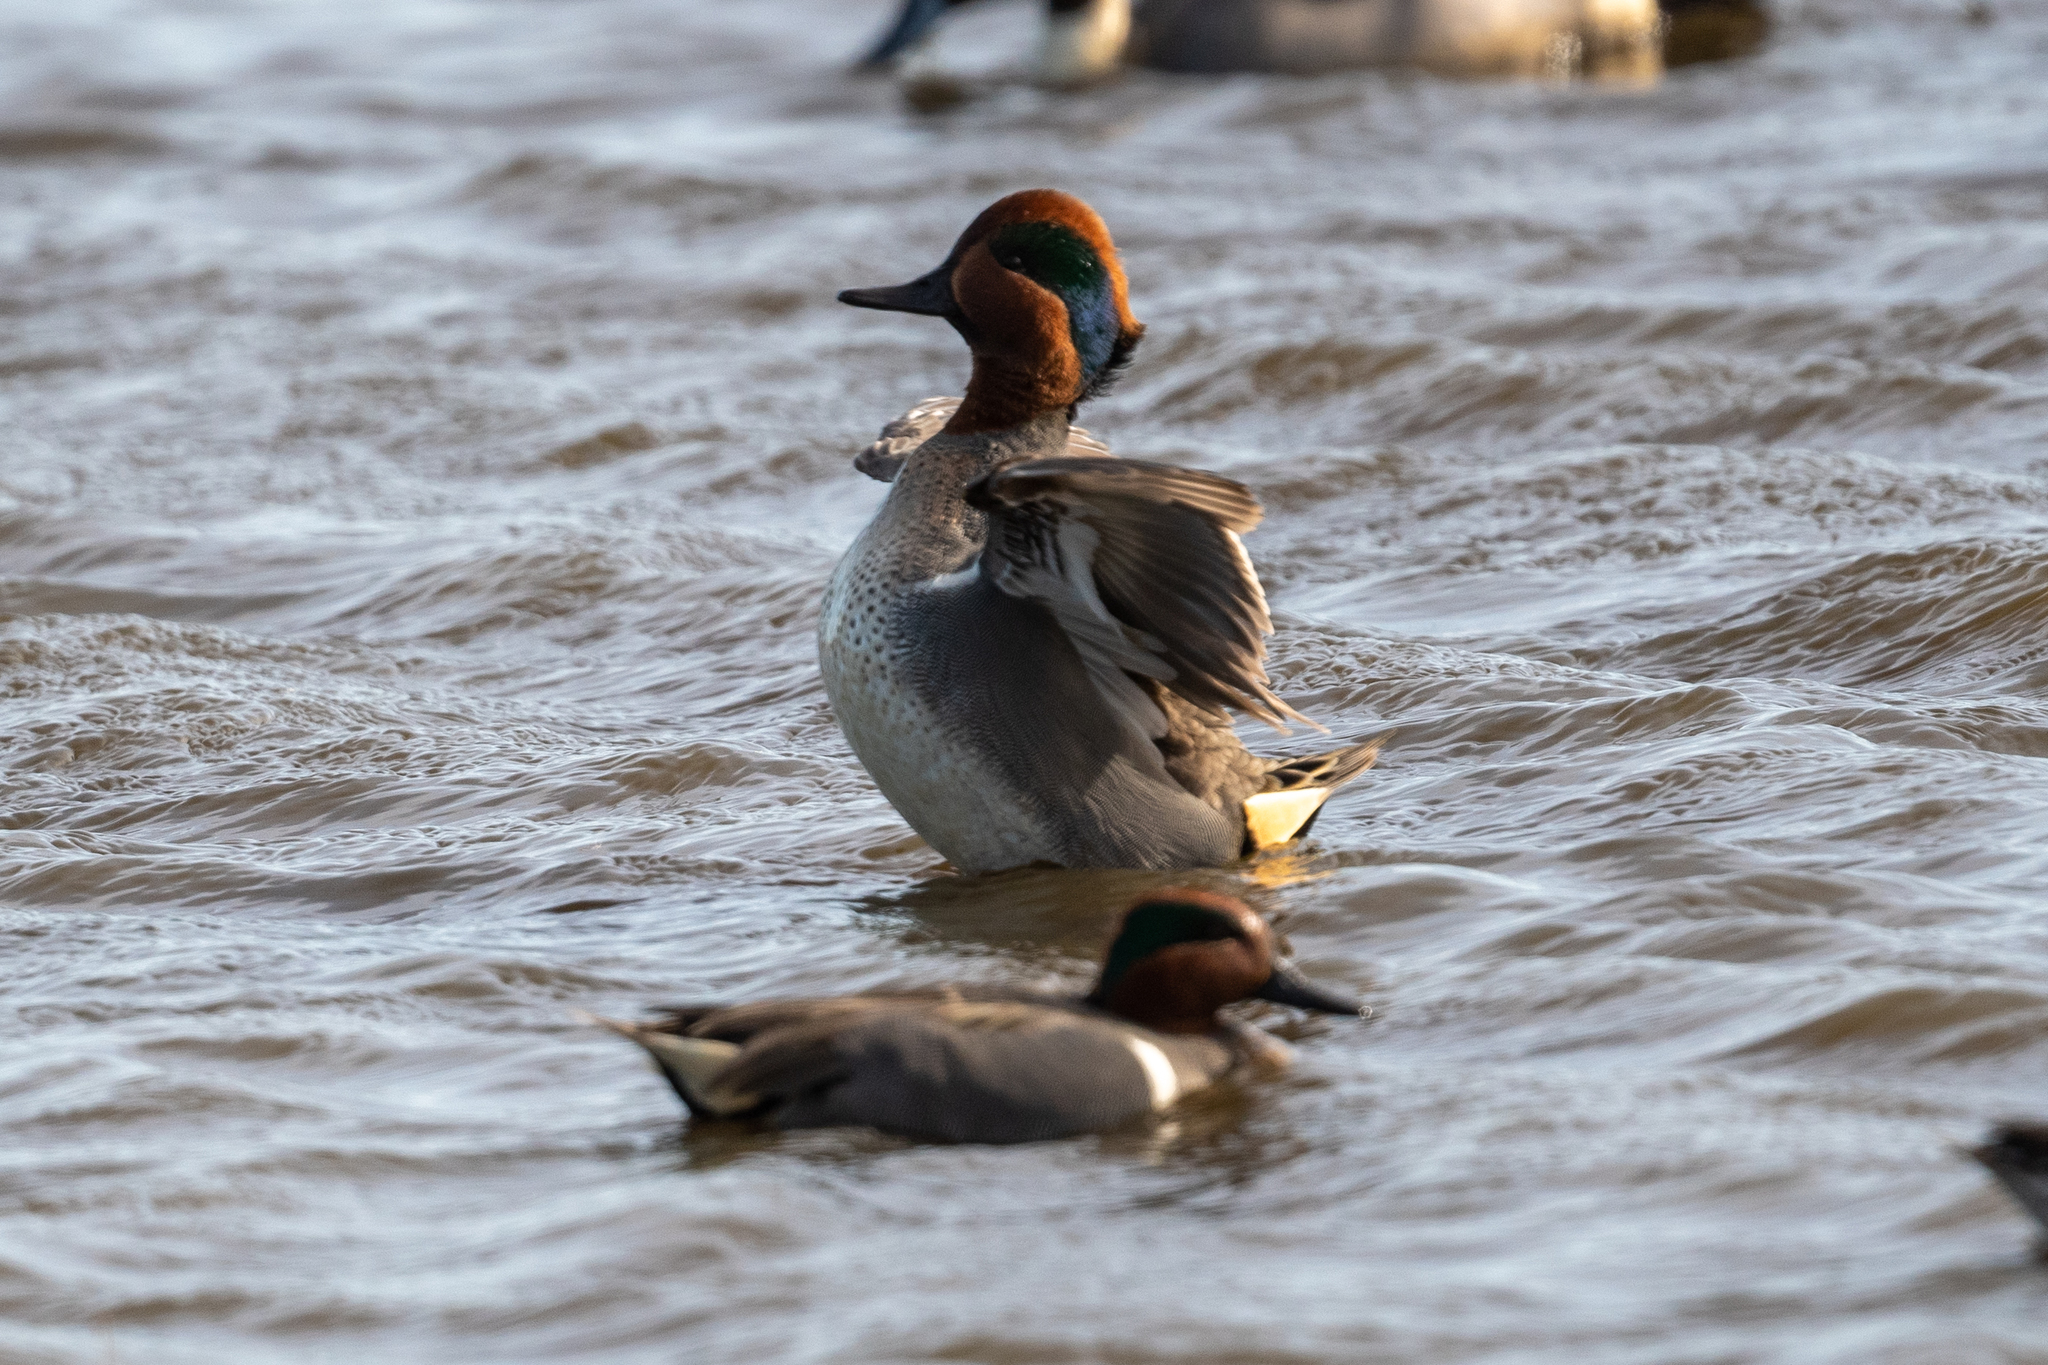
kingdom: Animalia
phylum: Chordata
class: Aves
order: Anseriformes
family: Anatidae
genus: Anas
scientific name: Anas crecca
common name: Eurasian teal
